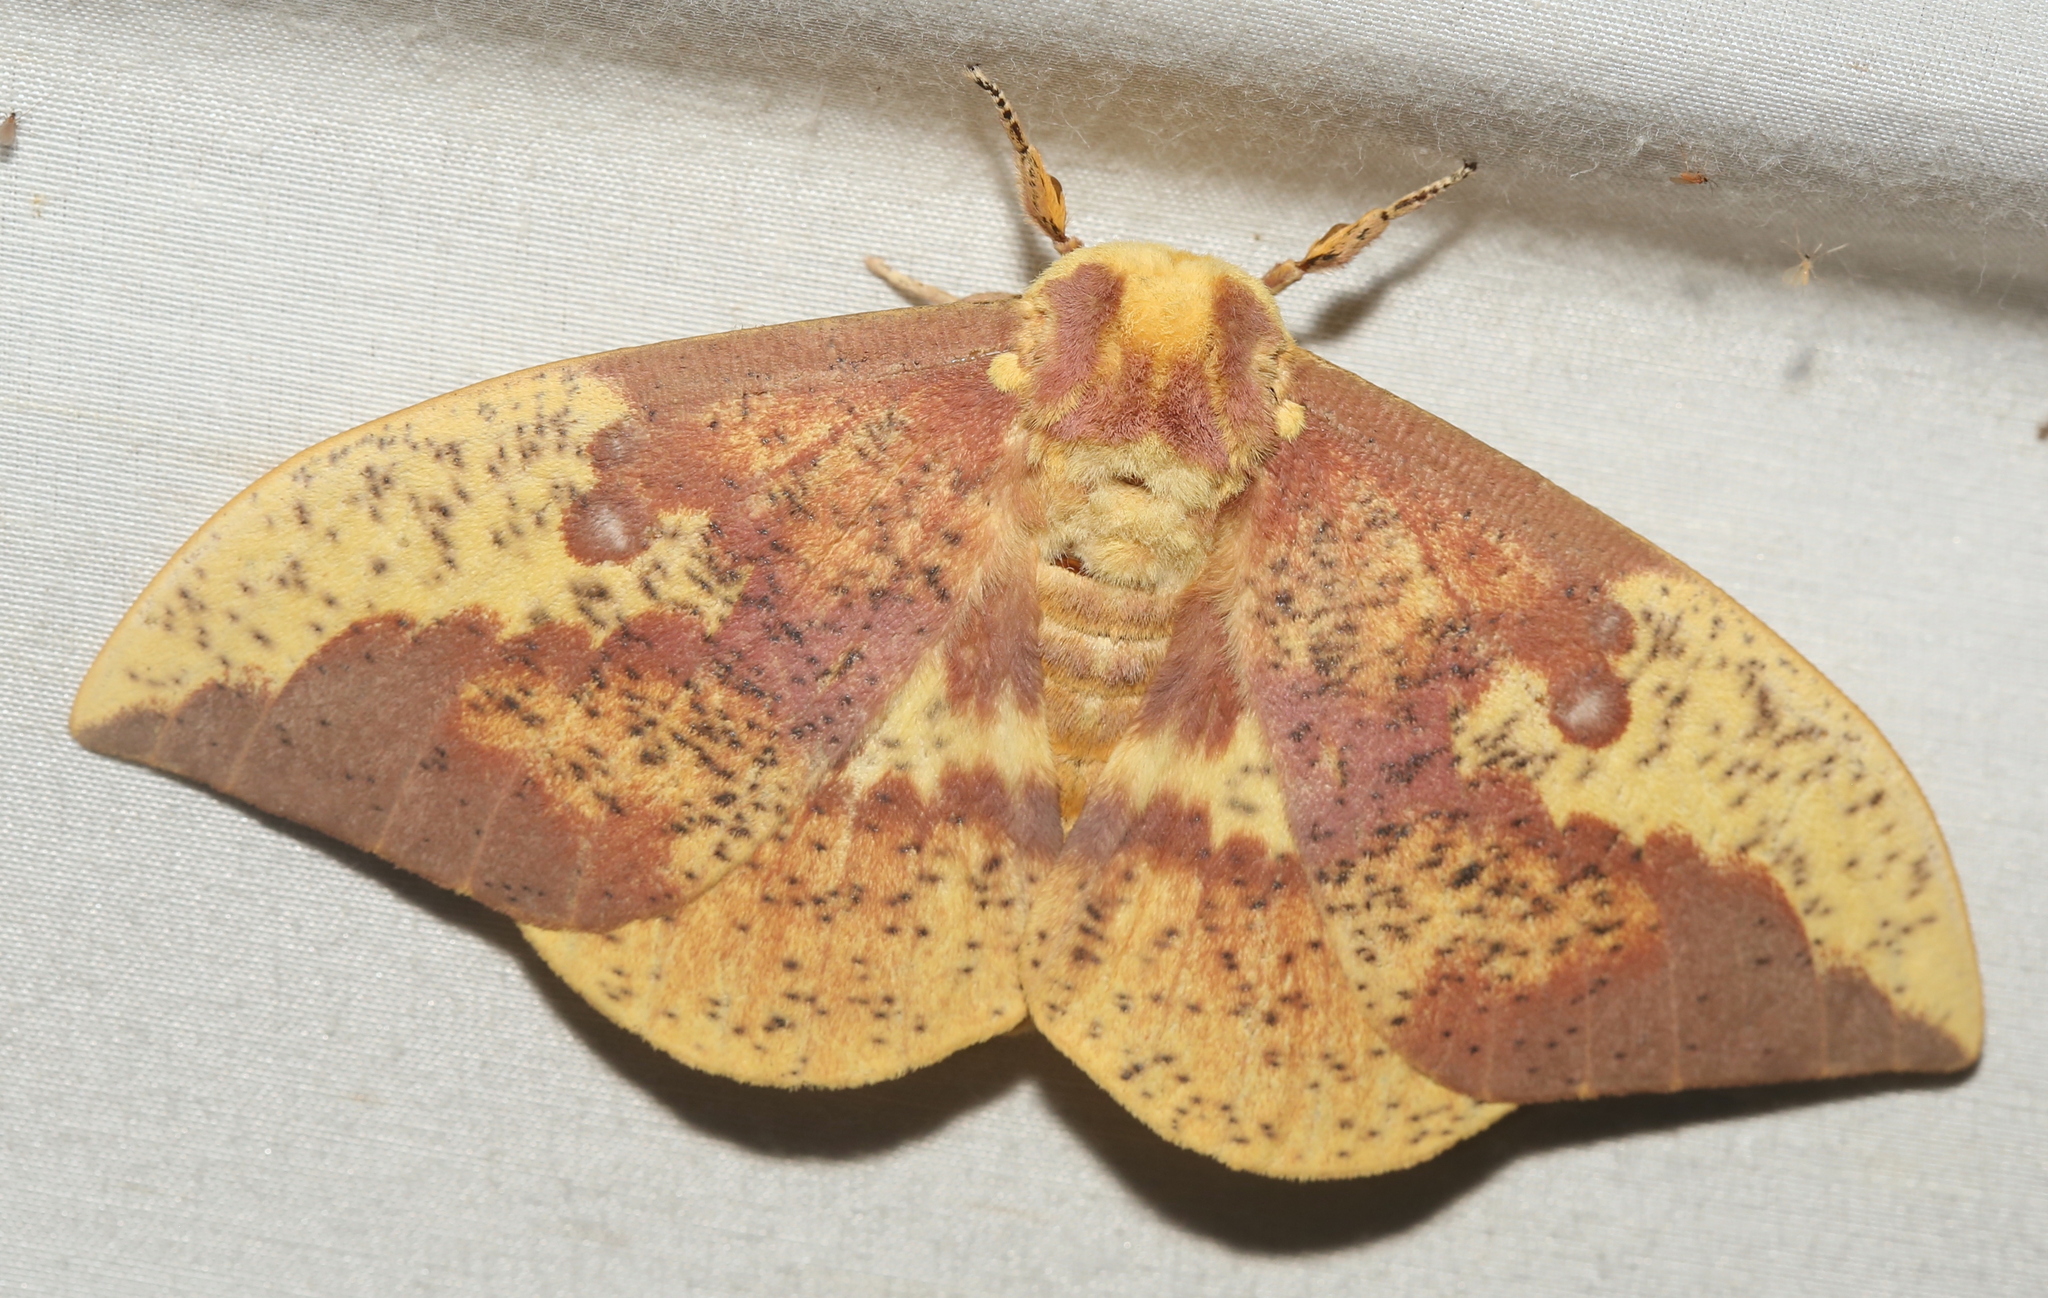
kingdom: Animalia
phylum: Arthropoda
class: Insecta
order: Lepidoptera
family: Saturniidae
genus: Eacles
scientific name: Eacles imperialis
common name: Imperial moth
